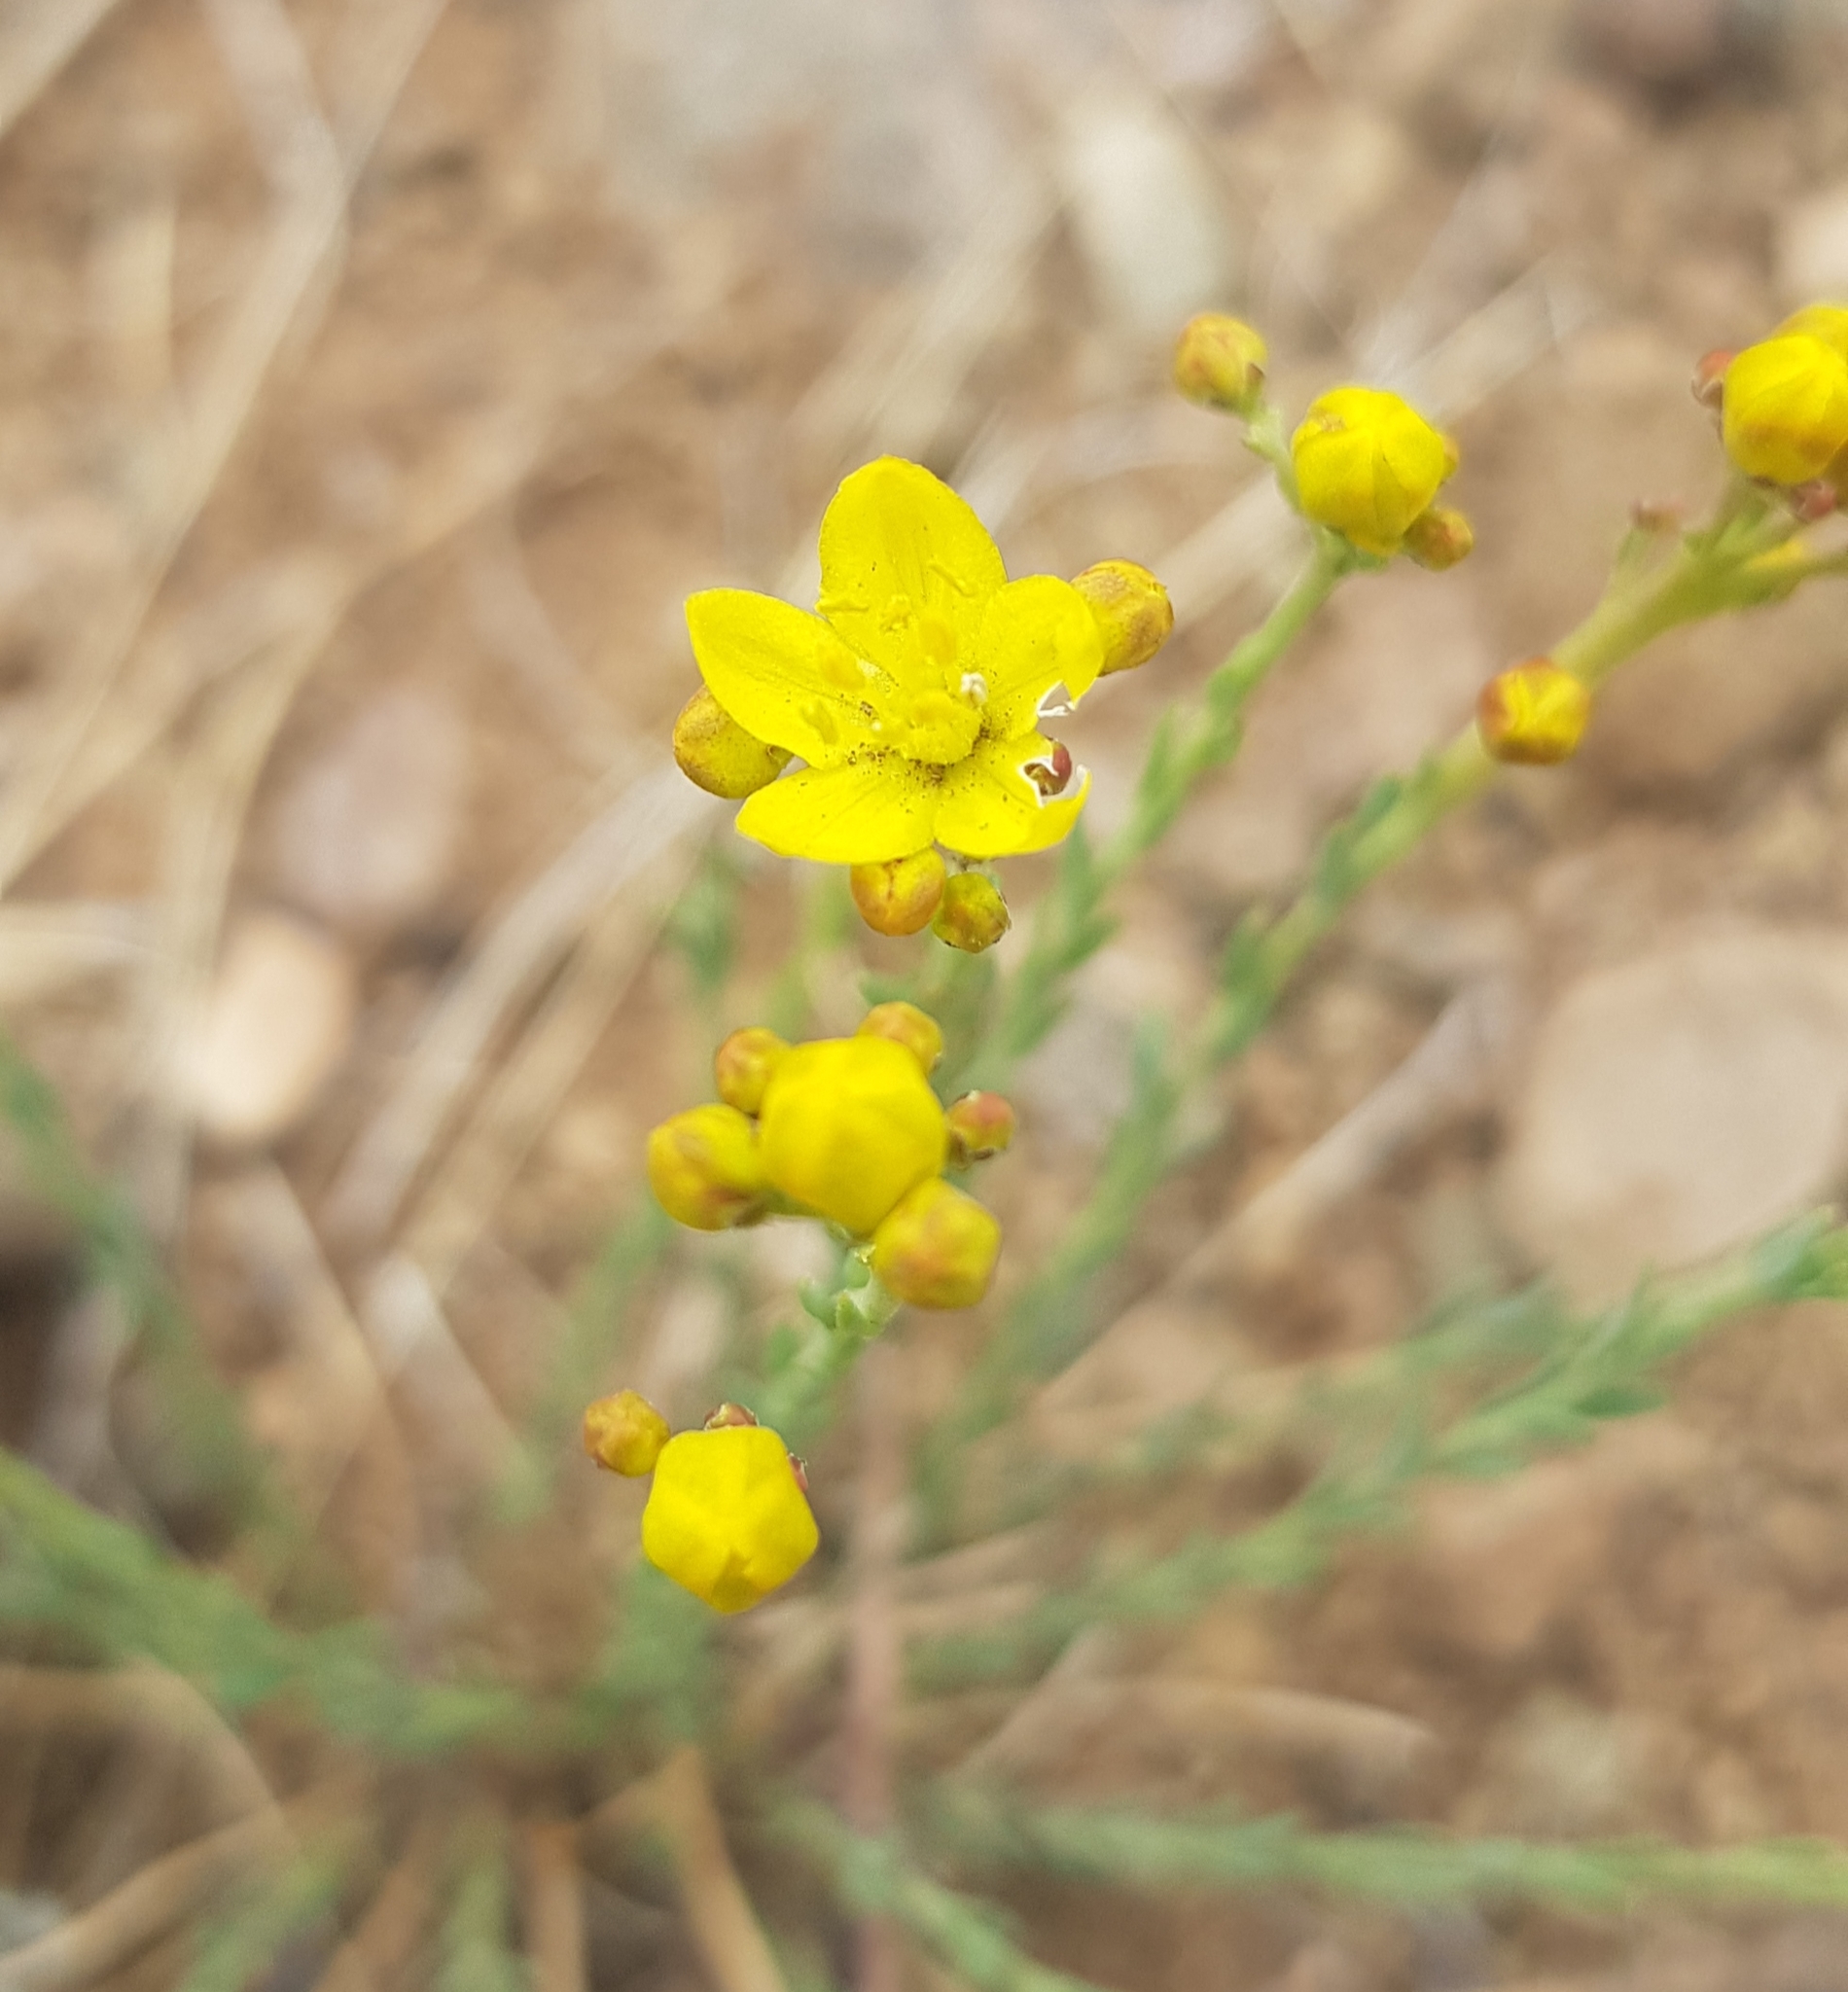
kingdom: Plantae
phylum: Tracheophyta
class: Magnoliopsida
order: Sapindales
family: Rutaceae
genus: Haplophyllum
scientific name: Haplophyllum dauricum
